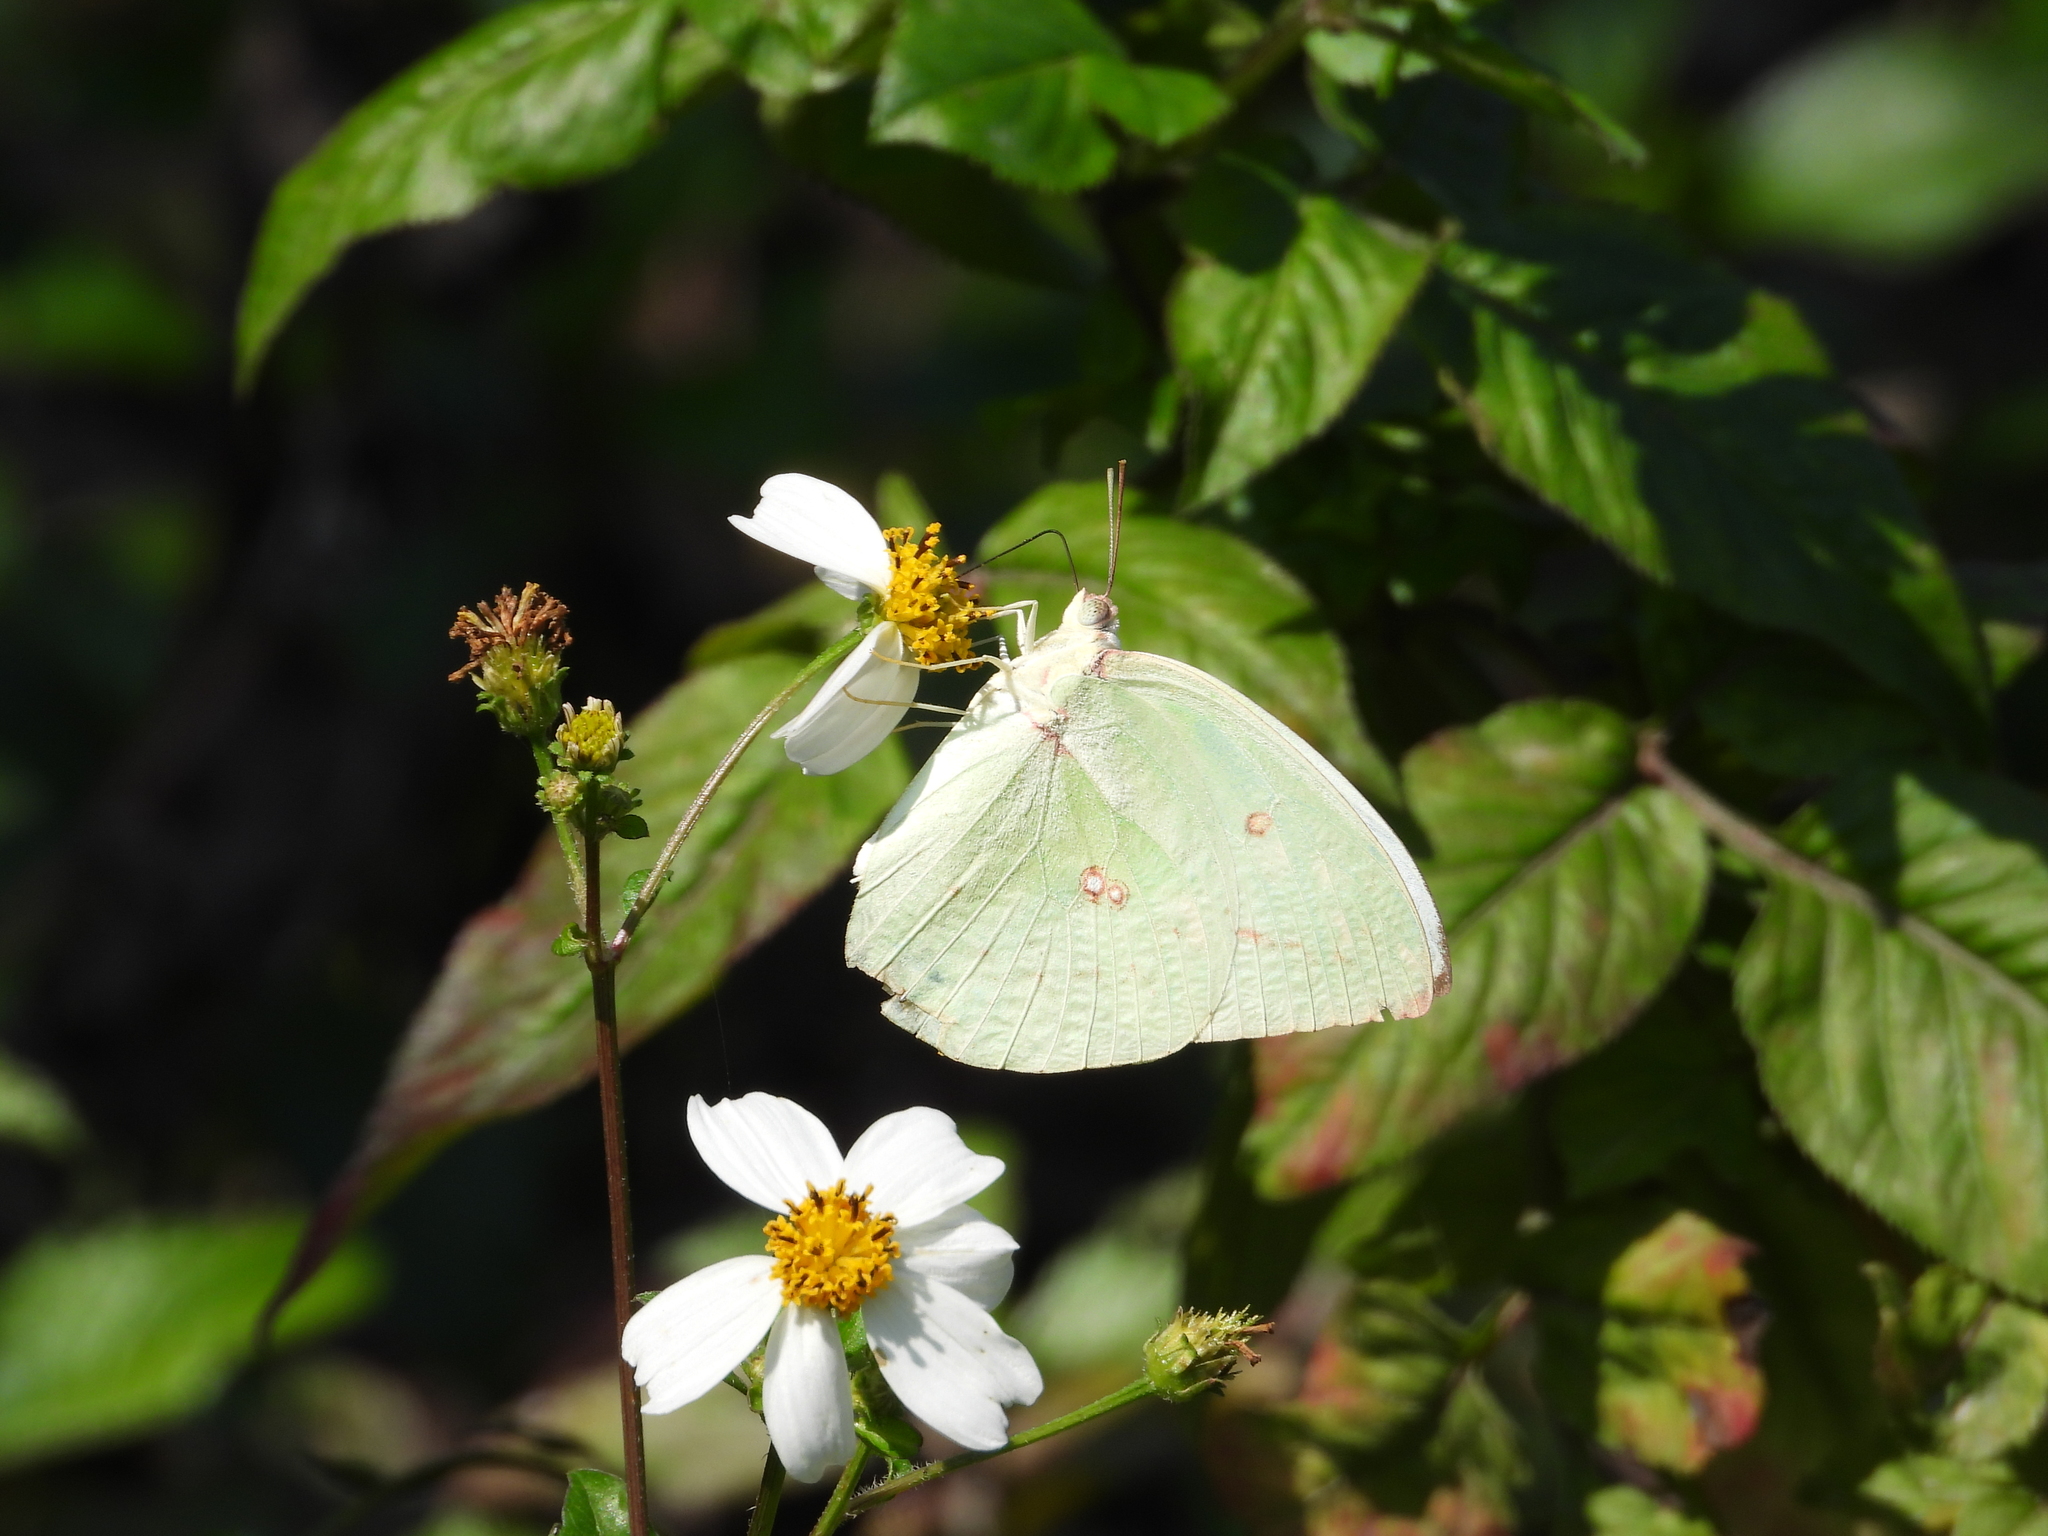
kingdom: Animalia
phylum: Arthropoda
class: Insecta
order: Lepidoptera
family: Pieridae
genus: Catopsilia
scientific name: Catopsilia pomona
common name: Common emigrant
